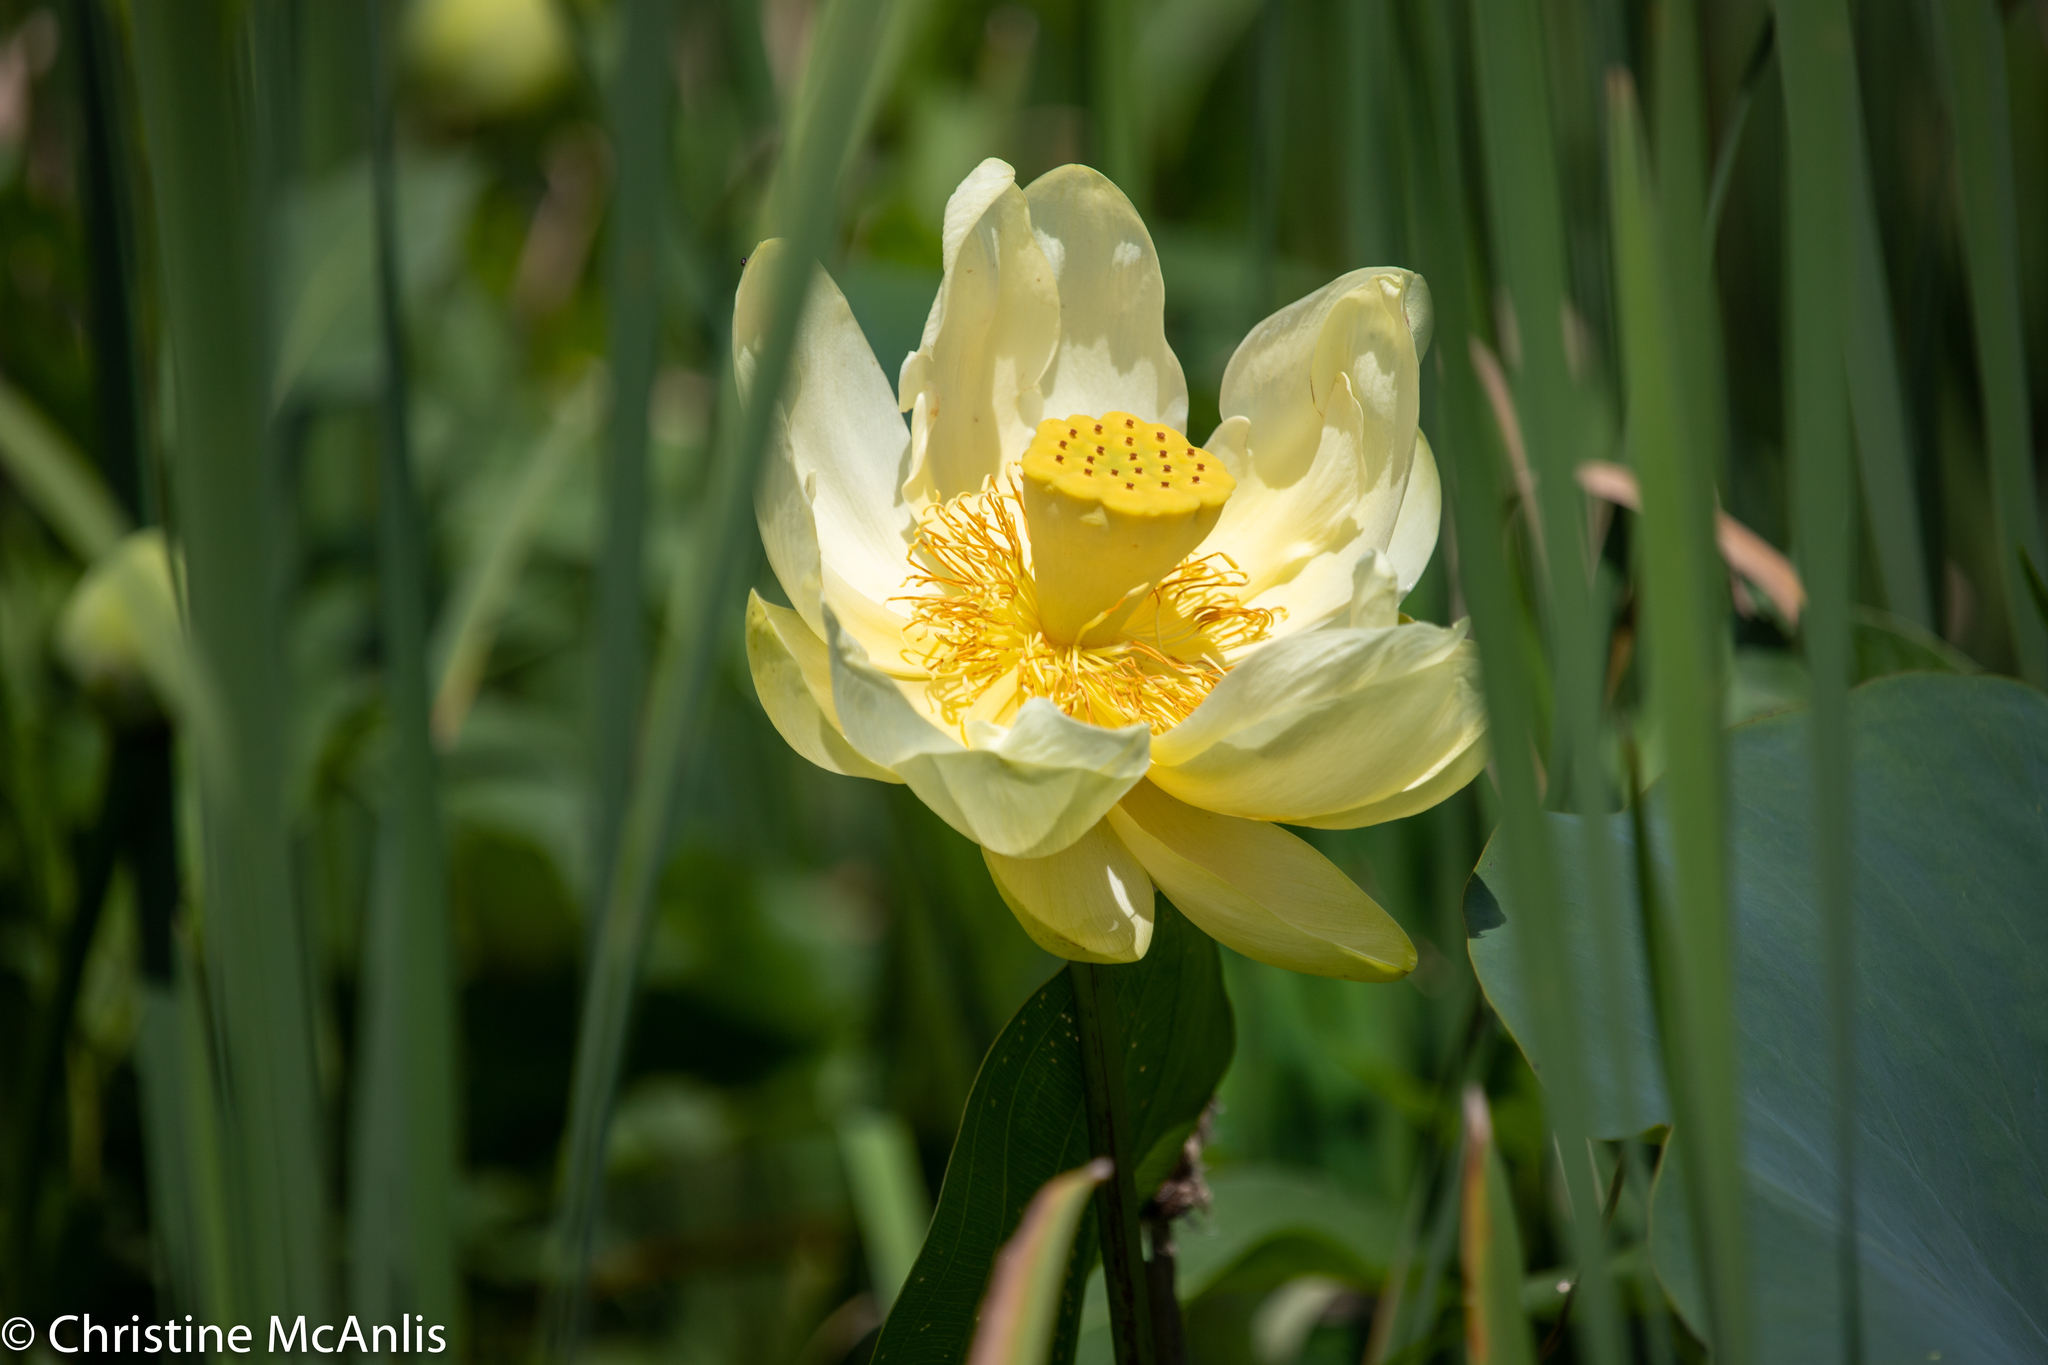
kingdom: Plantae
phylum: Tracheophyta
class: Magnoliopsida
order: Proteales
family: Nelumbonaceae
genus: Nelumbo
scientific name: Nelumbo lutea
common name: American lotus
